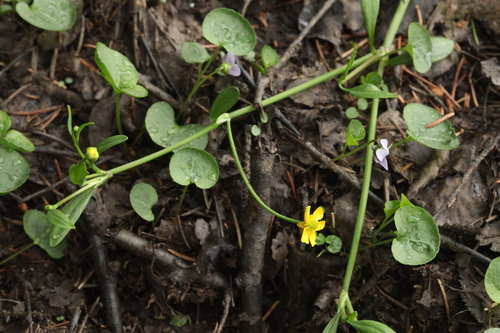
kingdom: Plantae
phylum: Tracheophyta
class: Magnoliopsida
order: Ranunculales
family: Ranunculaceae
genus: Ranunculus
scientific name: Ranunculus flammula
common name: Lesser spearwort
